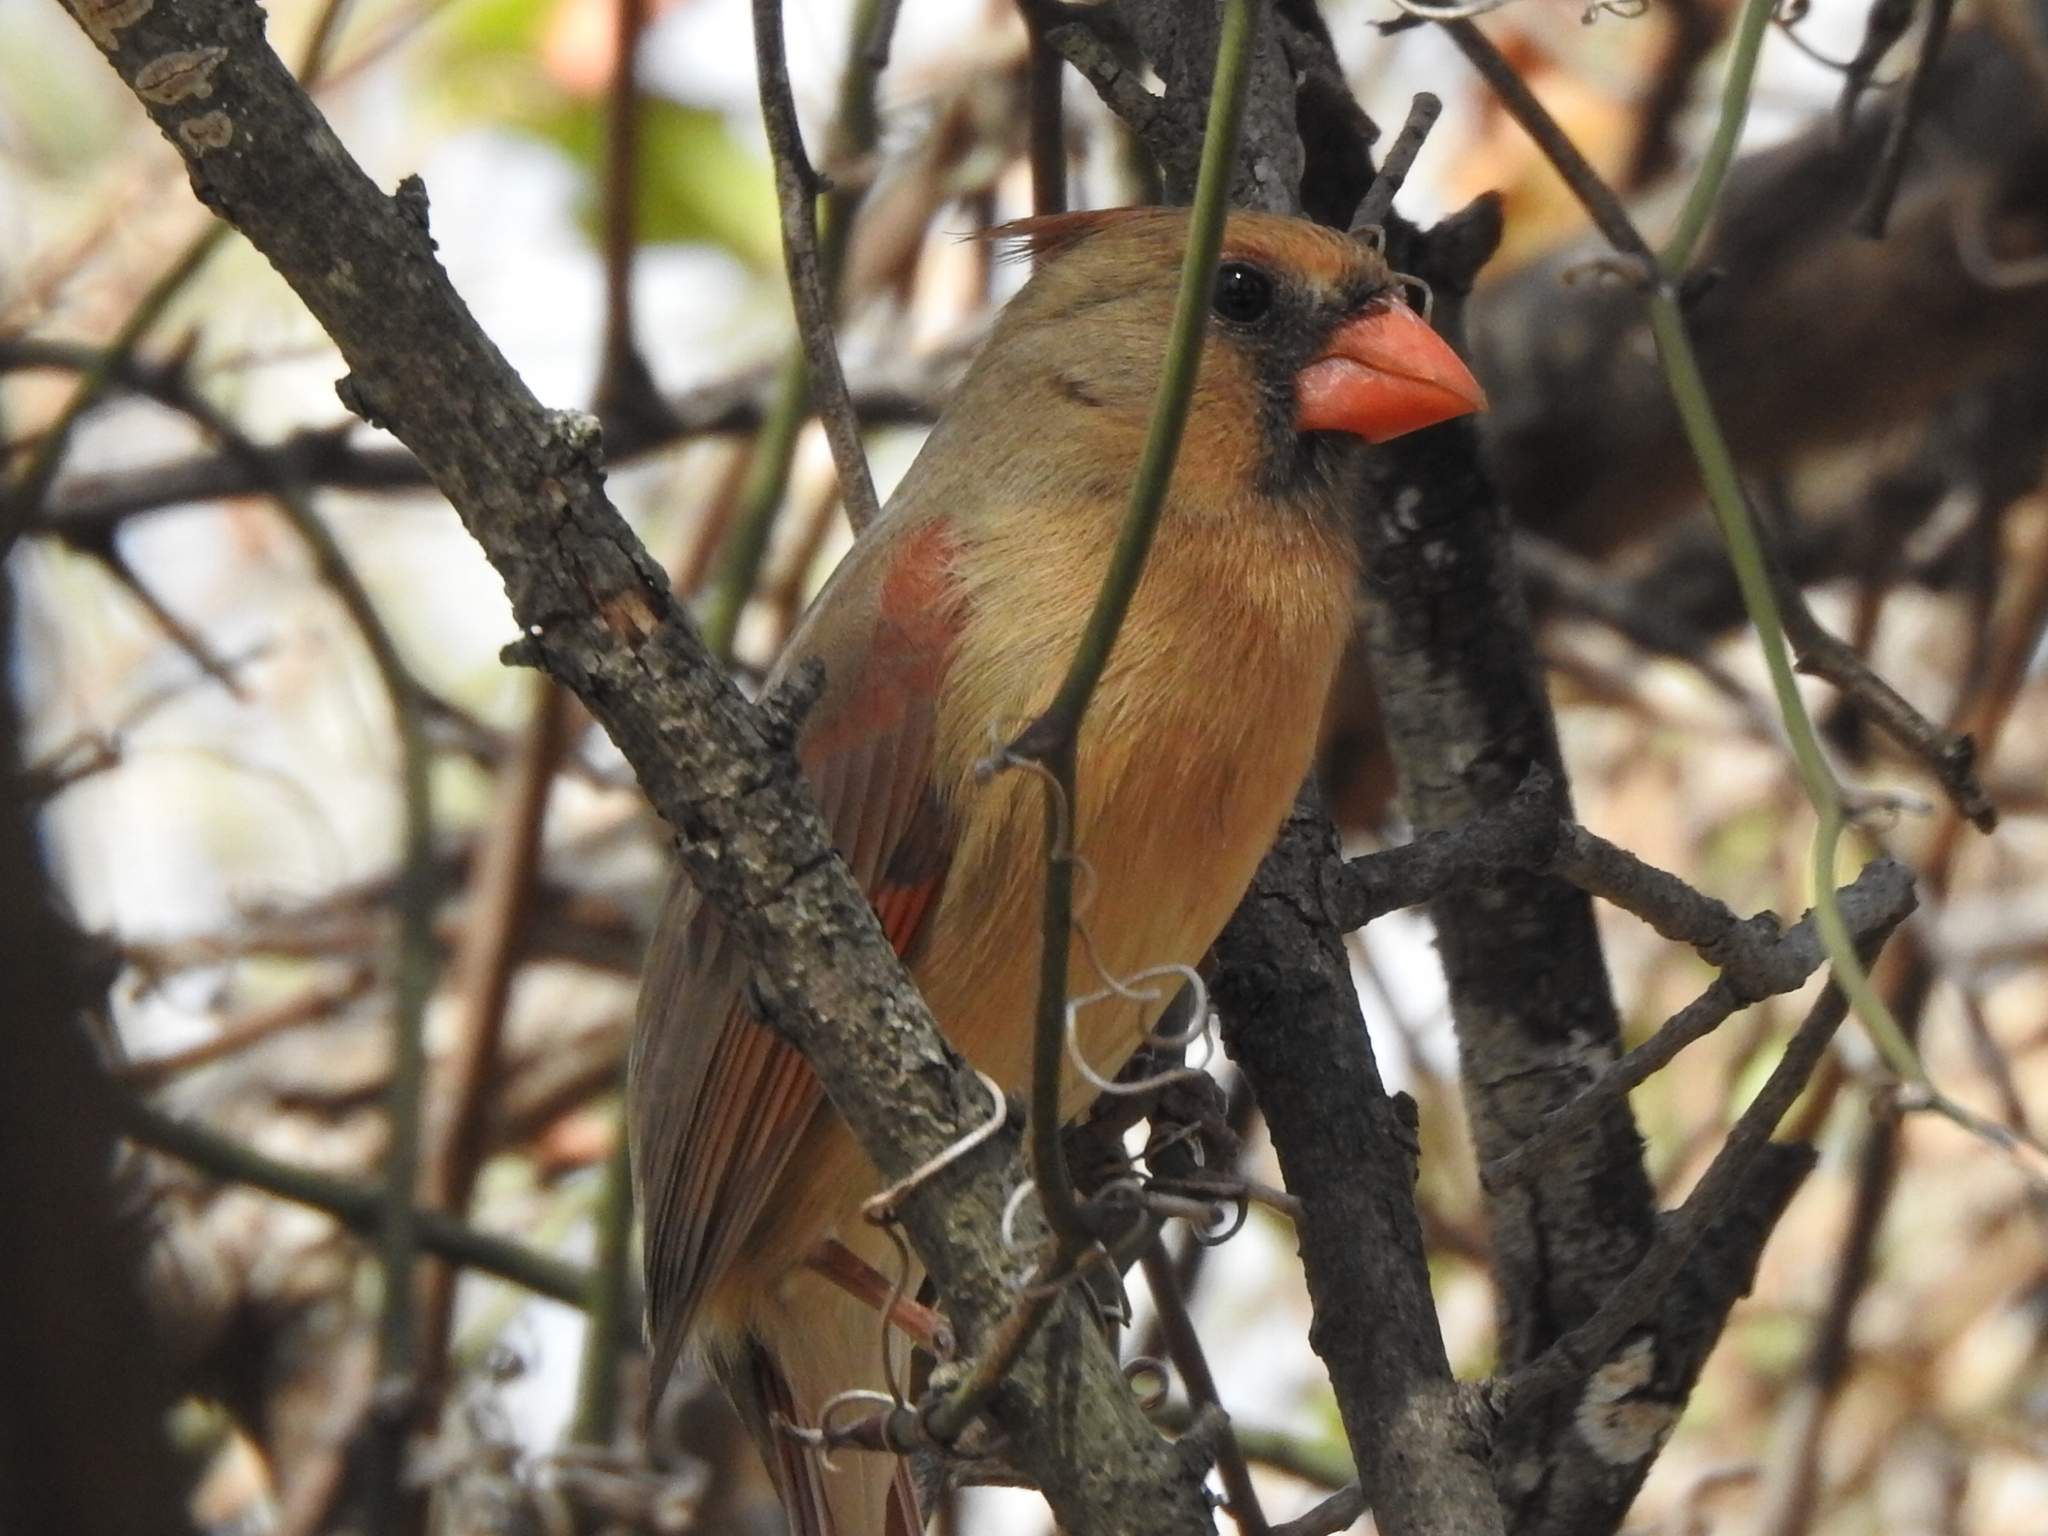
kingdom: Animalia
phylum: Chordata
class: Aves
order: Passeriformes
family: Cardinalidae
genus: Cardinalis
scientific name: Cardinalis cardinalis
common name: Northern cardinal
